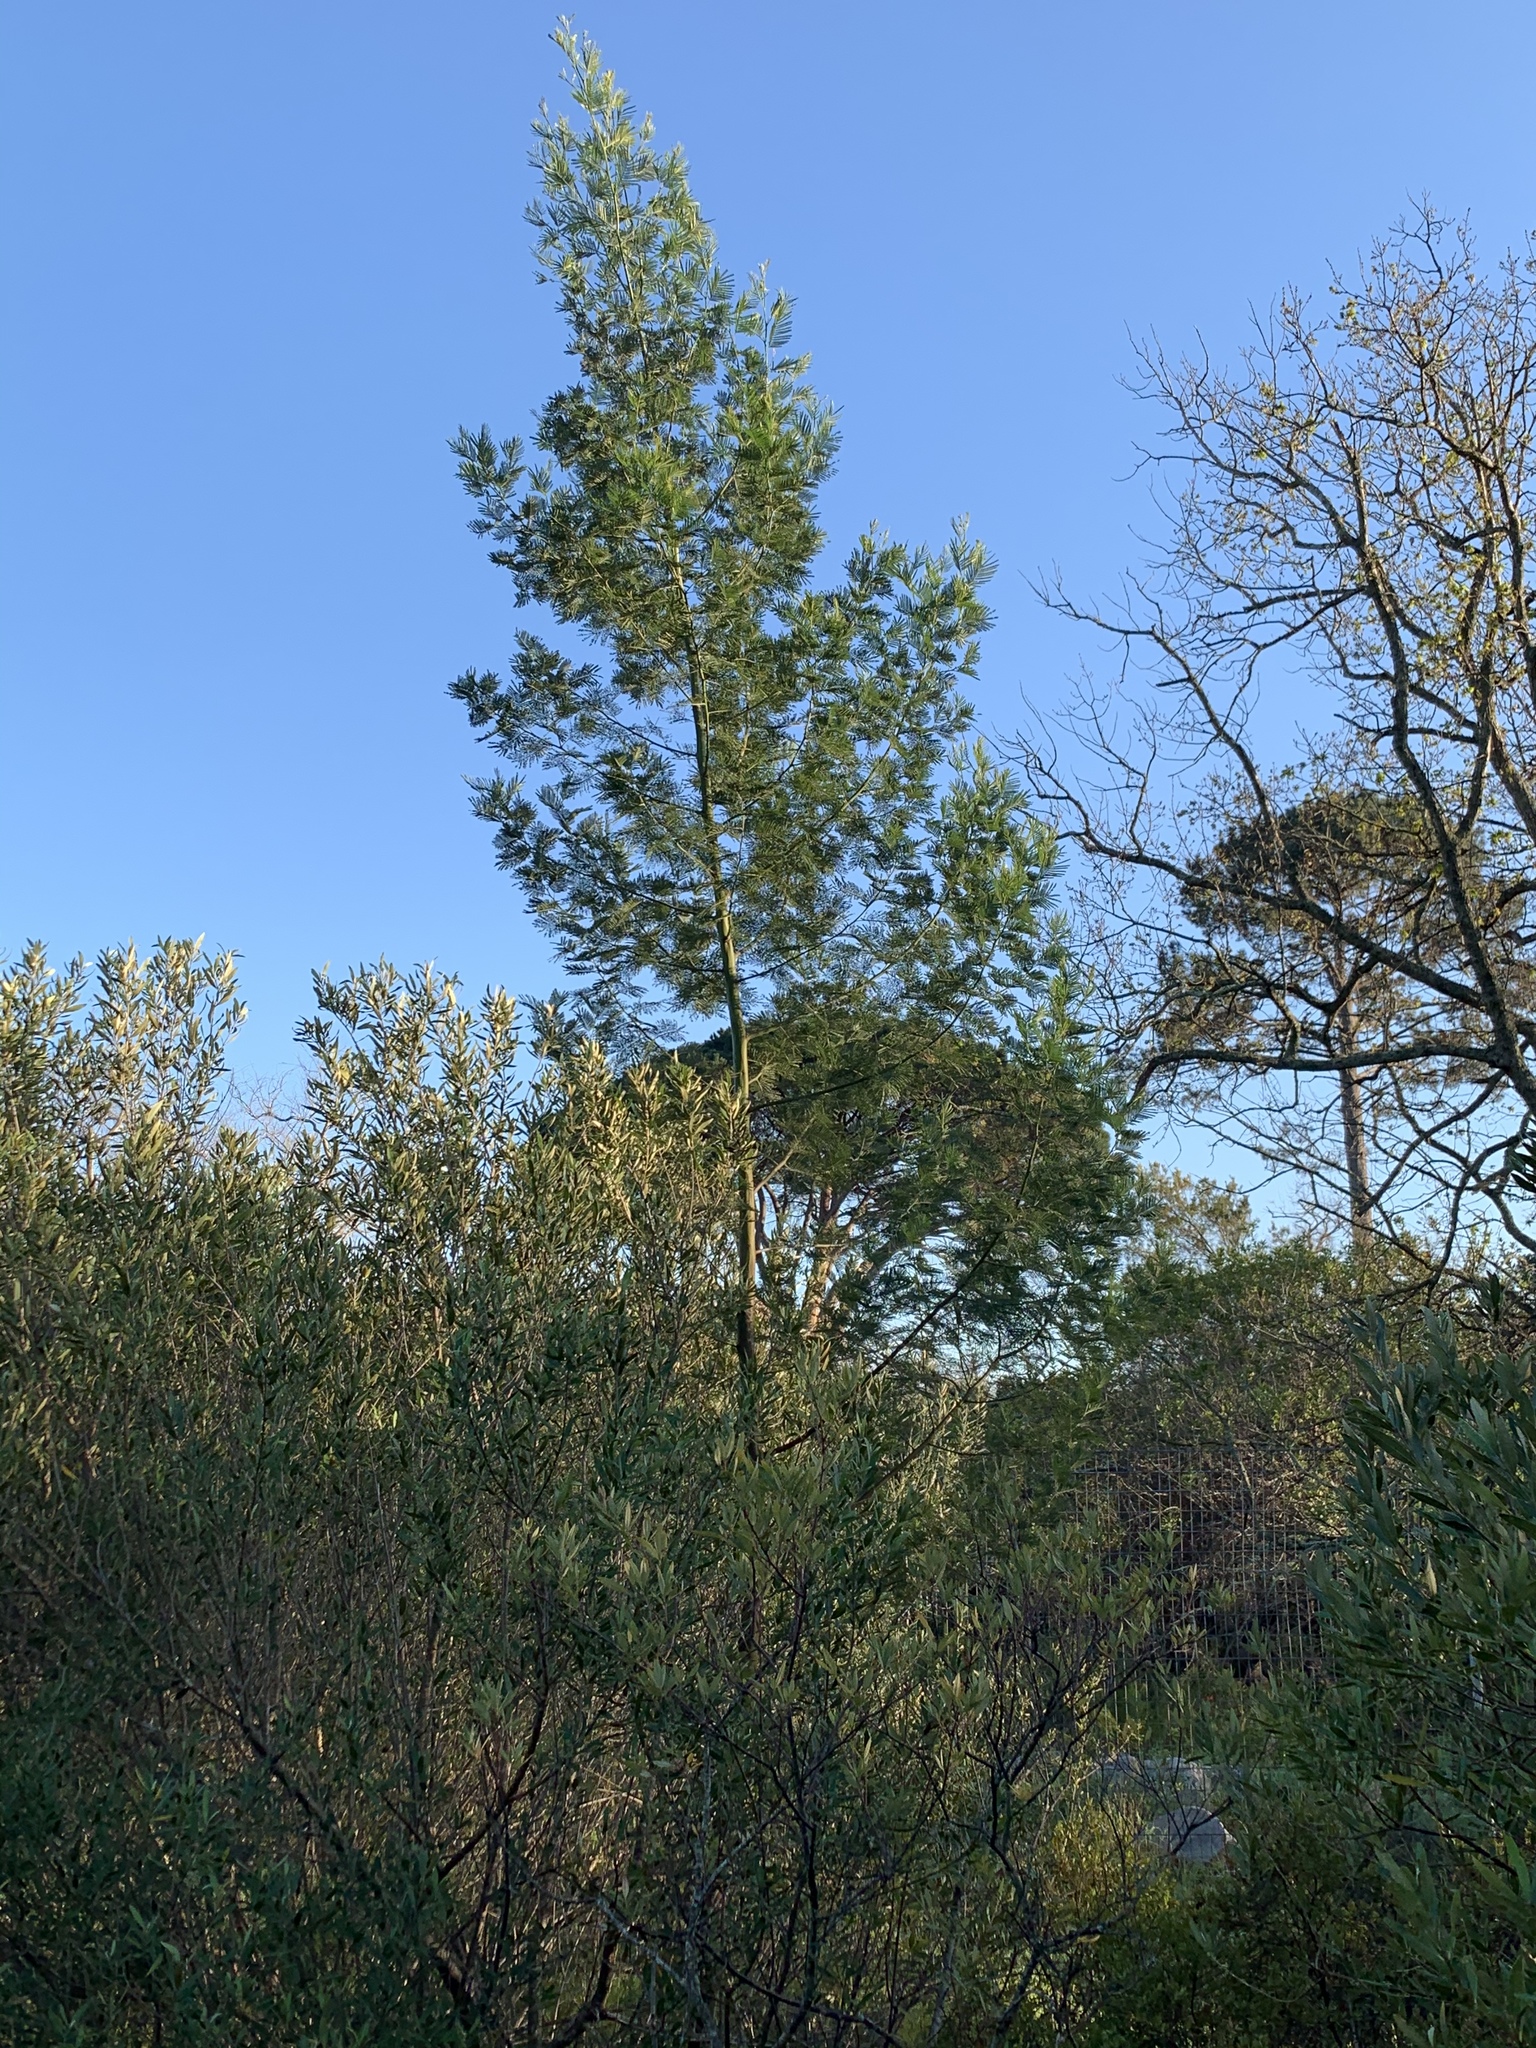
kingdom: Plantae
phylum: Tracheophyta
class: Magnoliopsida
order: Fabales
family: Fabaceae
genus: Acacia
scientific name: Acacia mearnsii
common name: Black wattle
